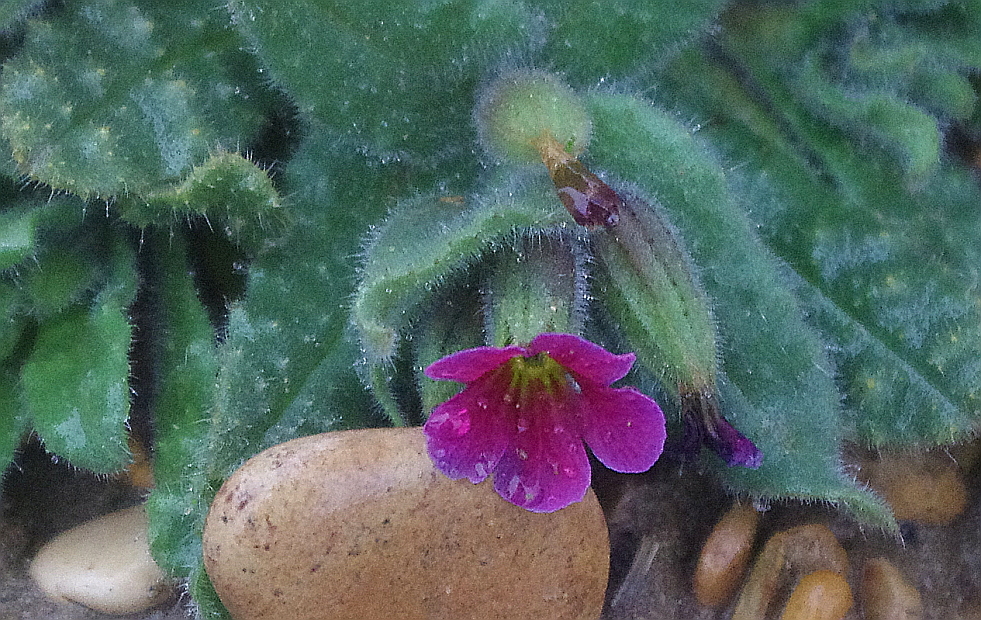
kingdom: Plantae
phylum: Tracheophyta
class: Magnoliopsida
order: Boraginales
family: Boraginaceae
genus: Nonea
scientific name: Nonea rosea
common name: Pink nonea
